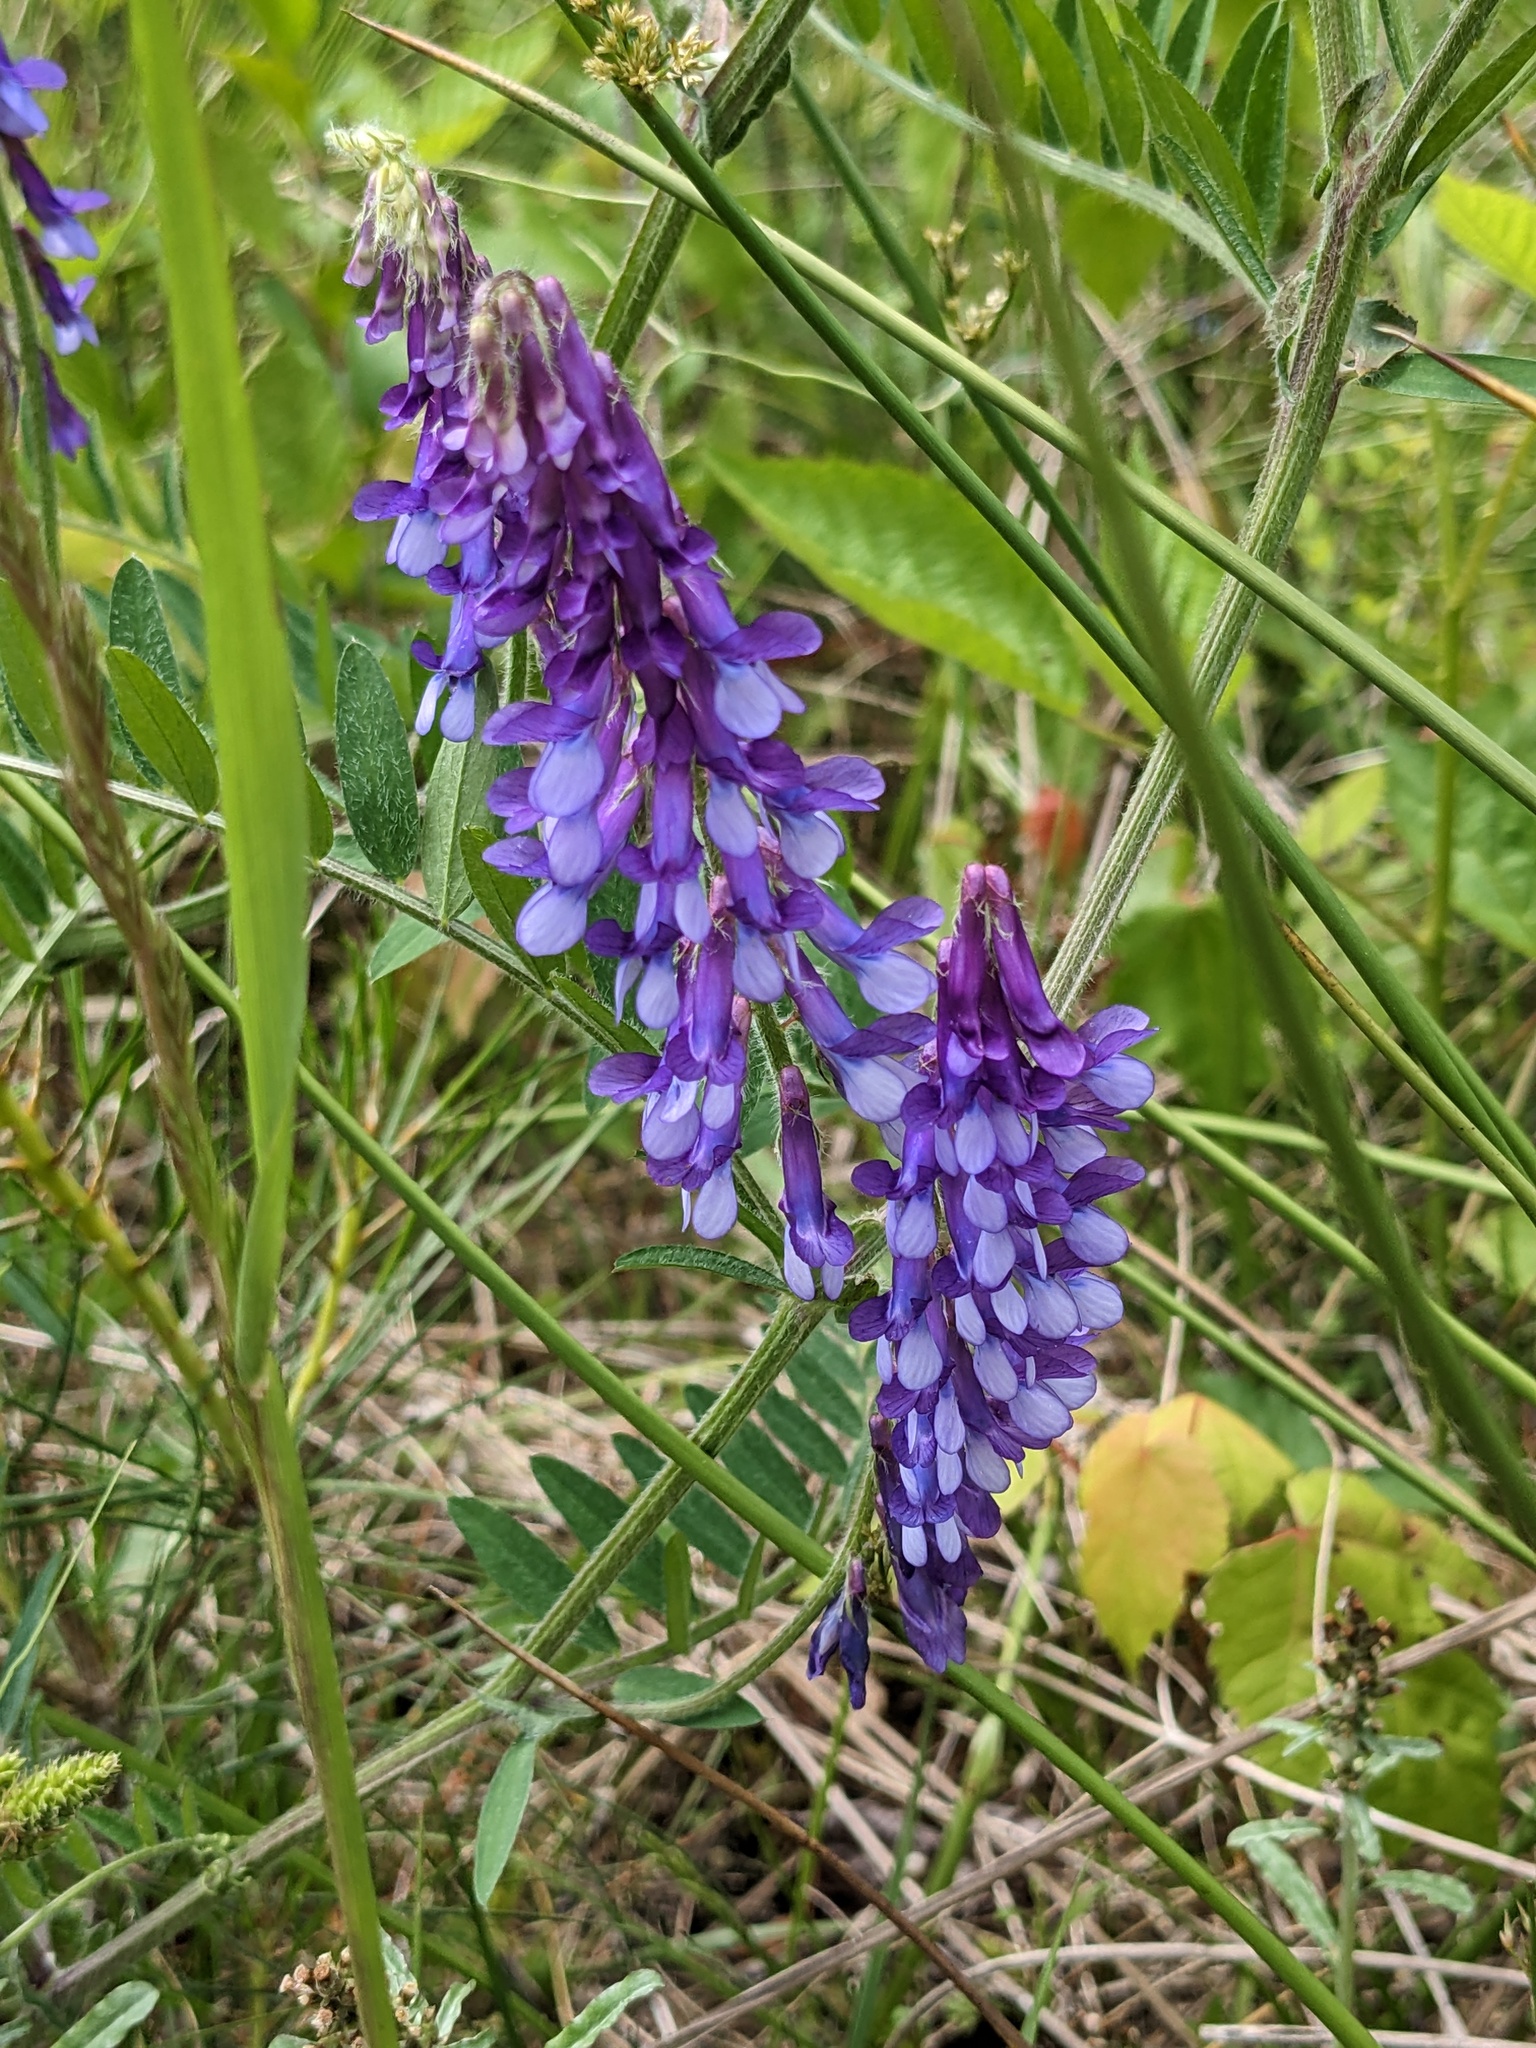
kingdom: Plantae
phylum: Tracheophyta
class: Magnoliopsida
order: Fabales
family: Fabaceae
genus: Vicia
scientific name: Vicia villosa
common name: Fodder vetch
